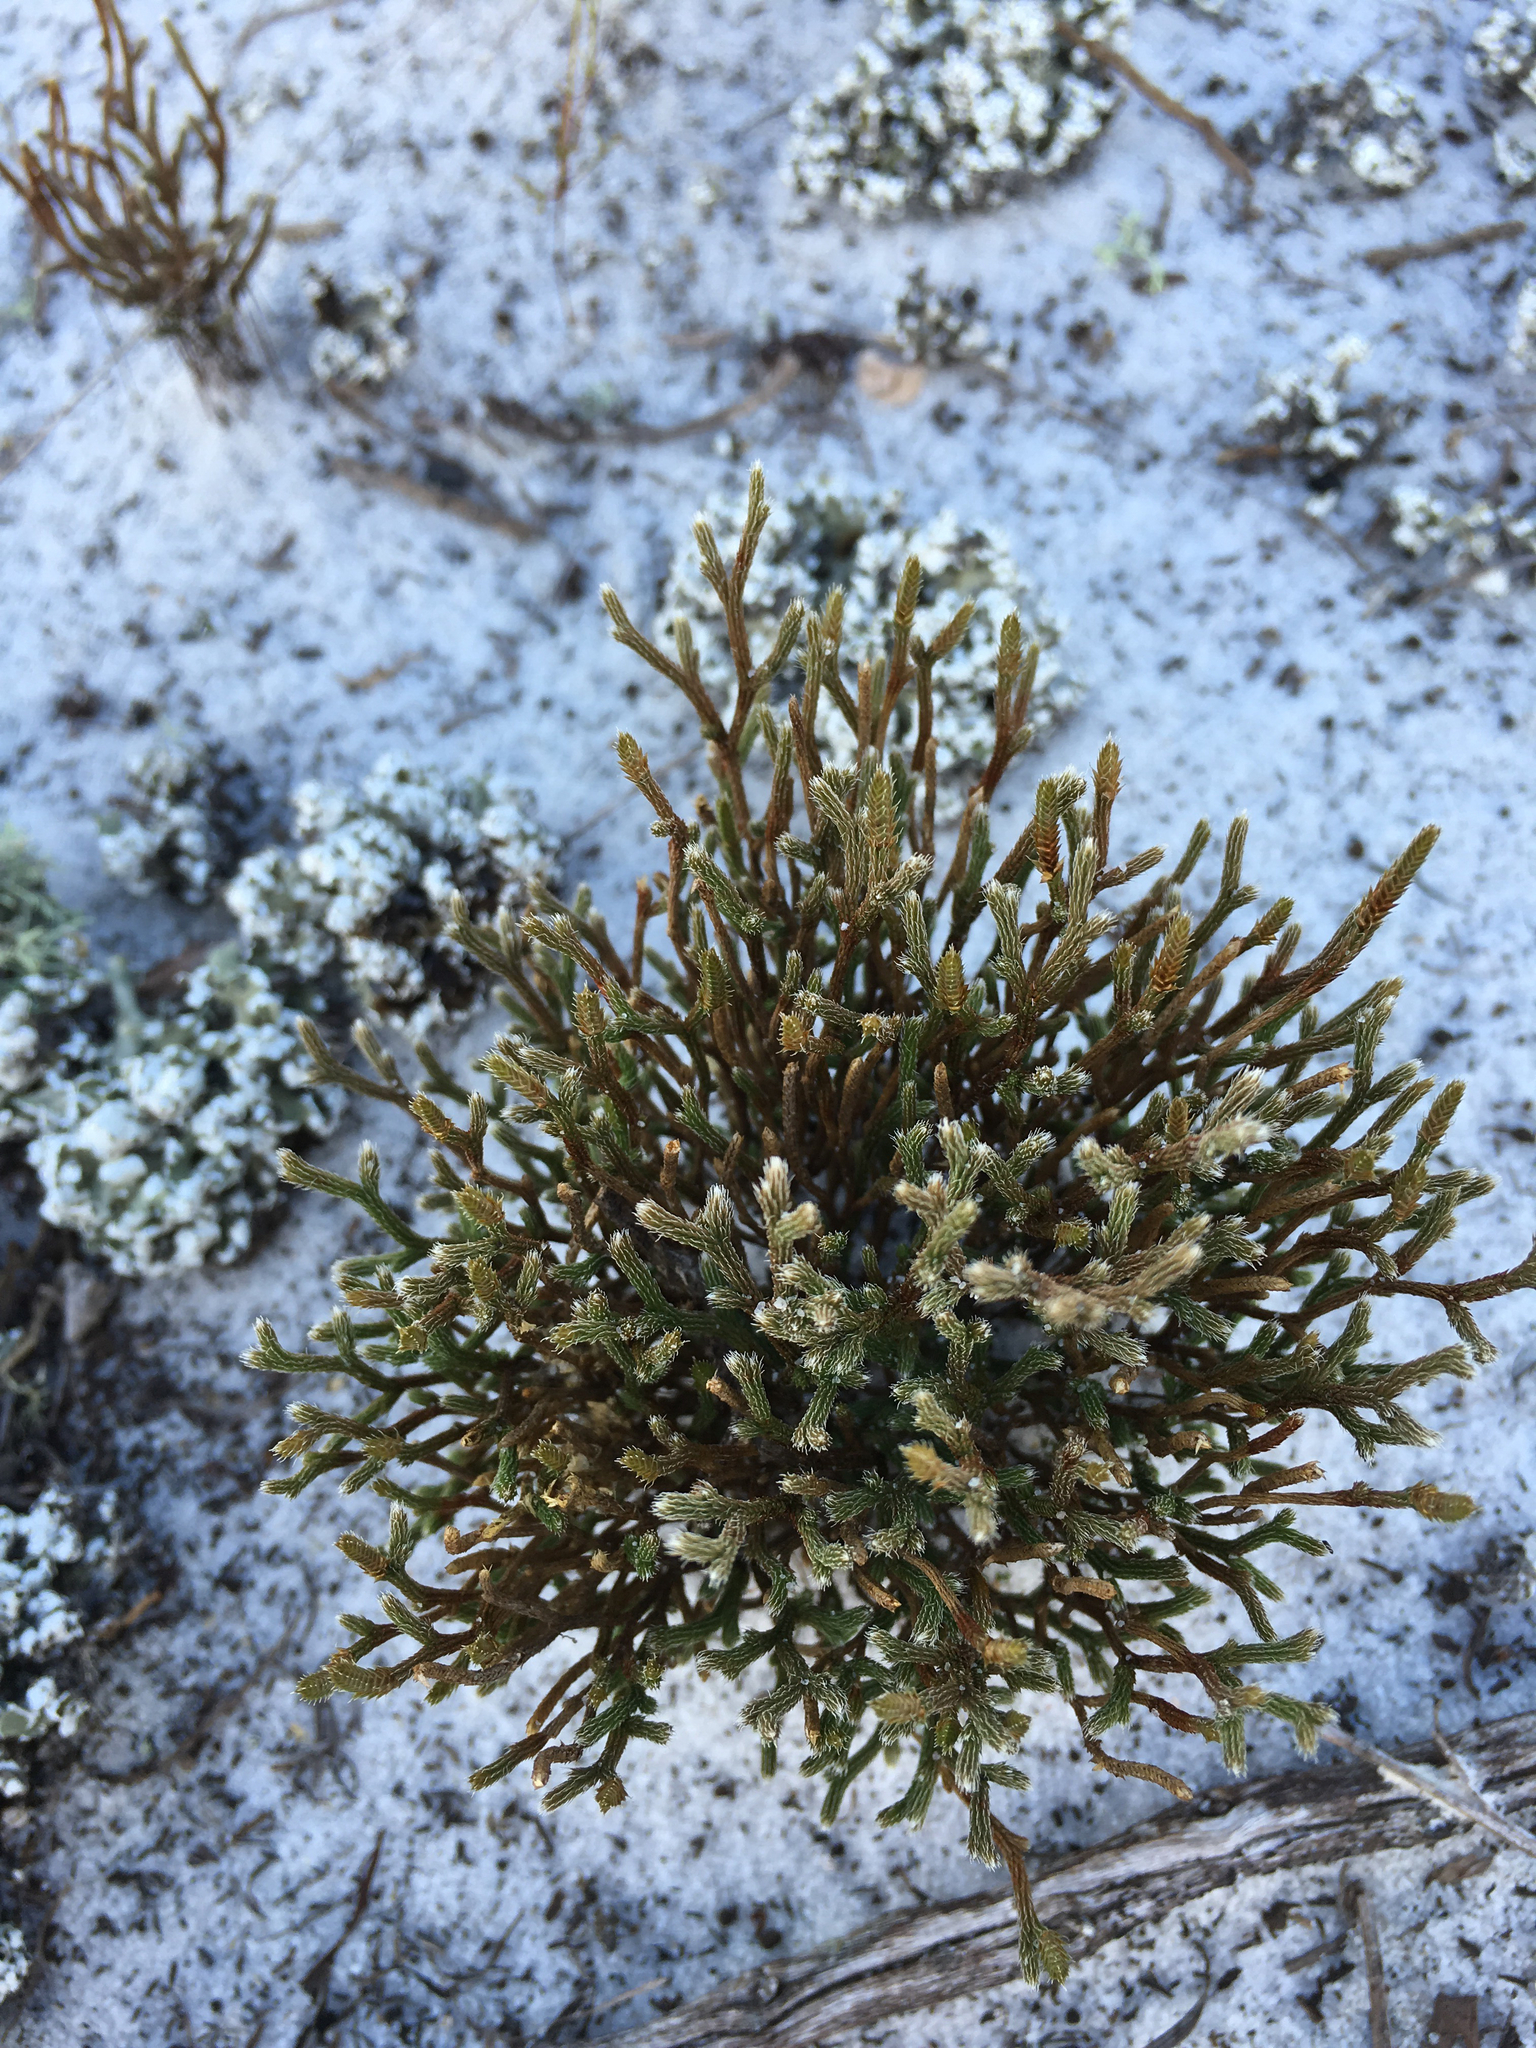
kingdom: Plantae
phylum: Tracheophyta
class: Lycopodiopsida
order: Selaginellales
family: Selaginellaceae
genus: Selaginella
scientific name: Selaginella arenicola
